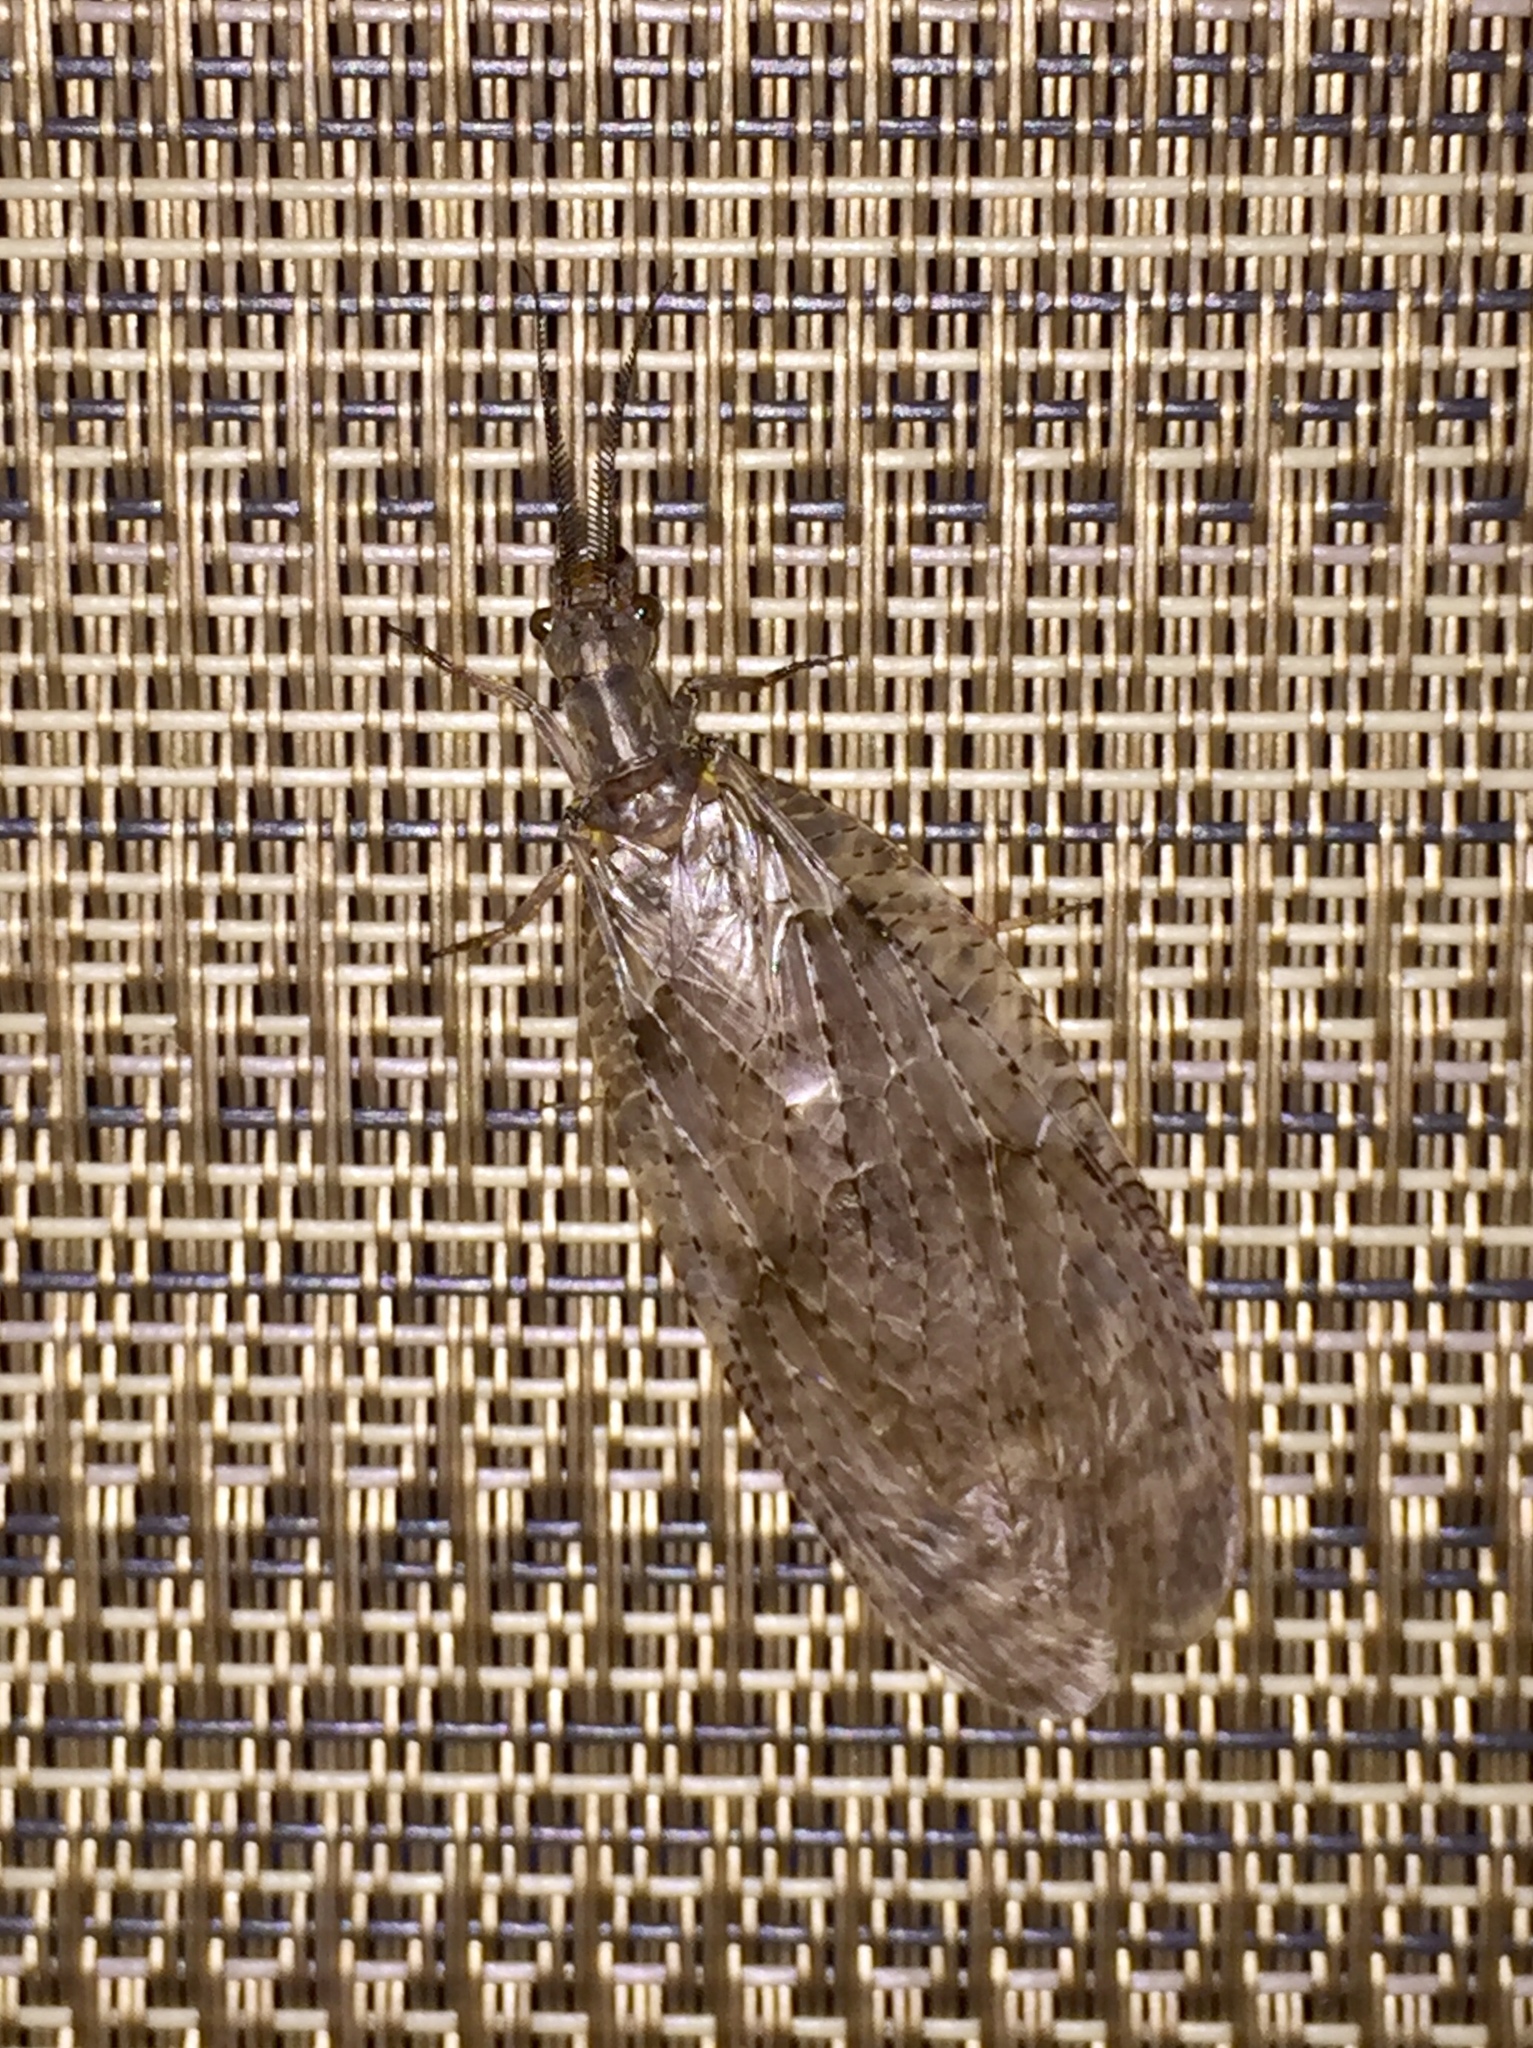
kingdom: Animalia
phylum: Arthropoda
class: Insecta
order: Megaloptera
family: Corydalidae
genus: Chauliodes
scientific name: Chauliodes pectinicornis
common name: Summer fishfly
